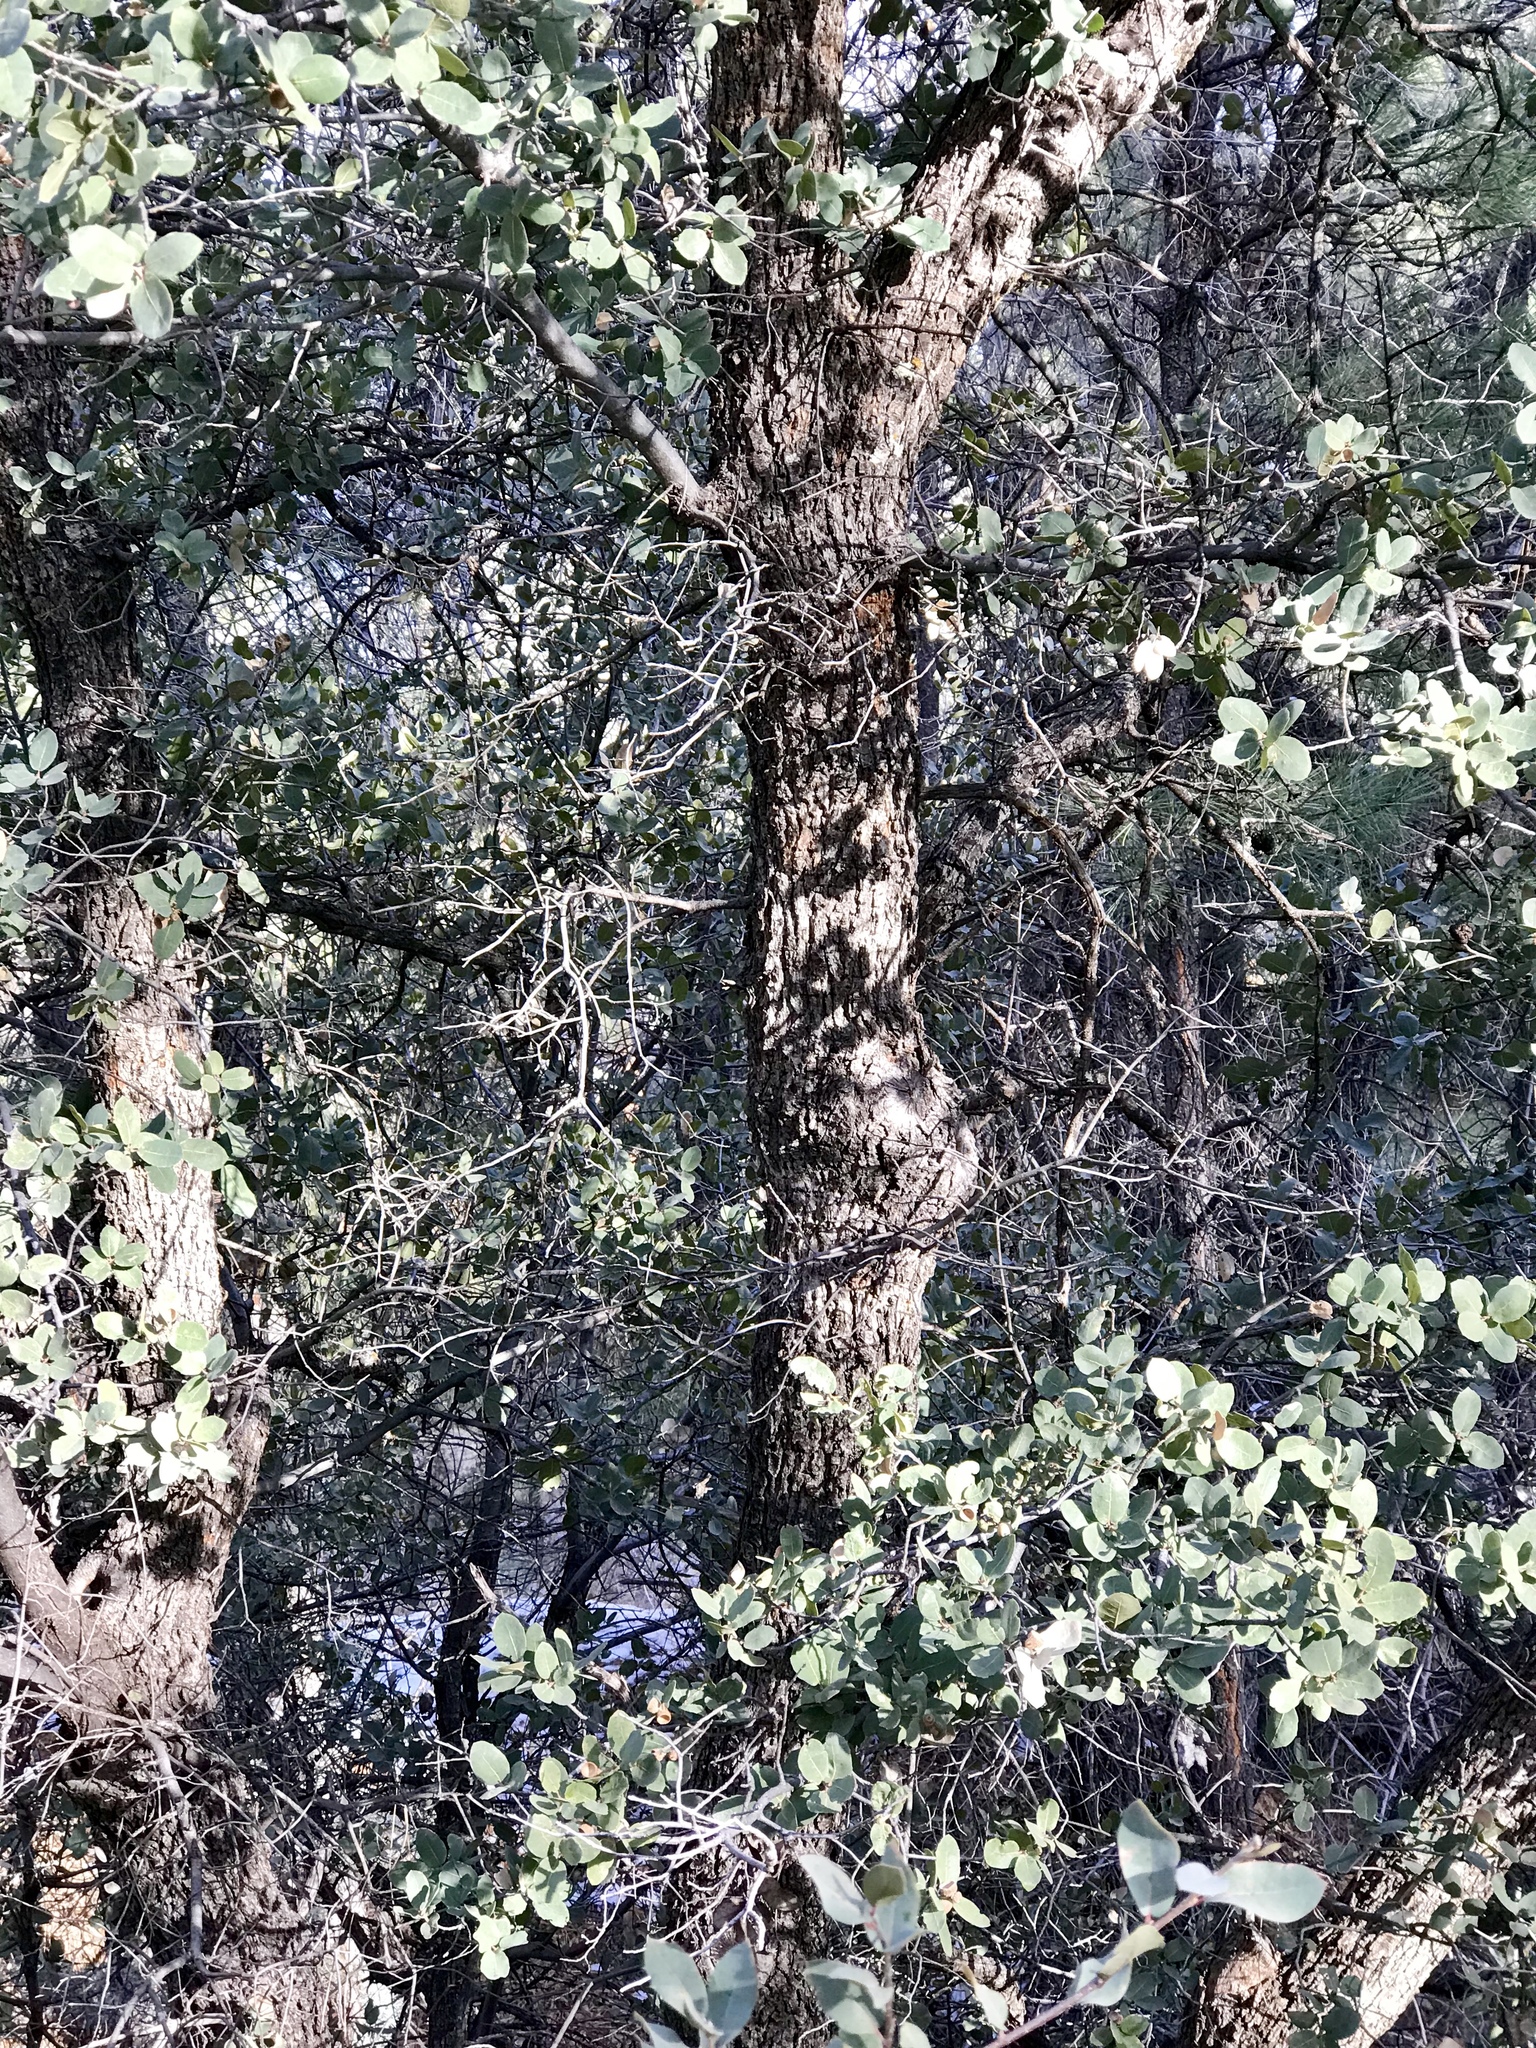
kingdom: Plantae
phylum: Tracheophyta
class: Magnoliopsida
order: Fagales
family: Fagaceae
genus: Quercus
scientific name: Quercus grisea
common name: Gray oak
